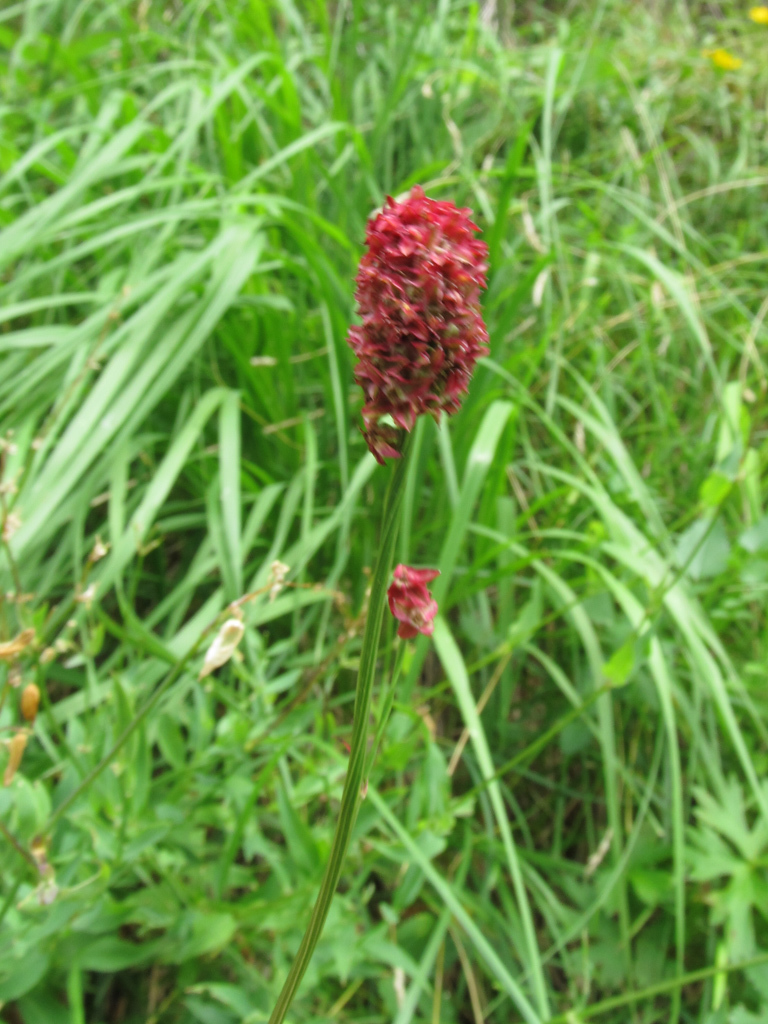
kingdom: Plantae
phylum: Tracheophyta
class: Magnoliopsida
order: Rosales
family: Rosaceae
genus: Sanguisorba
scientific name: Sanguisorba officinalis
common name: Great burnet
